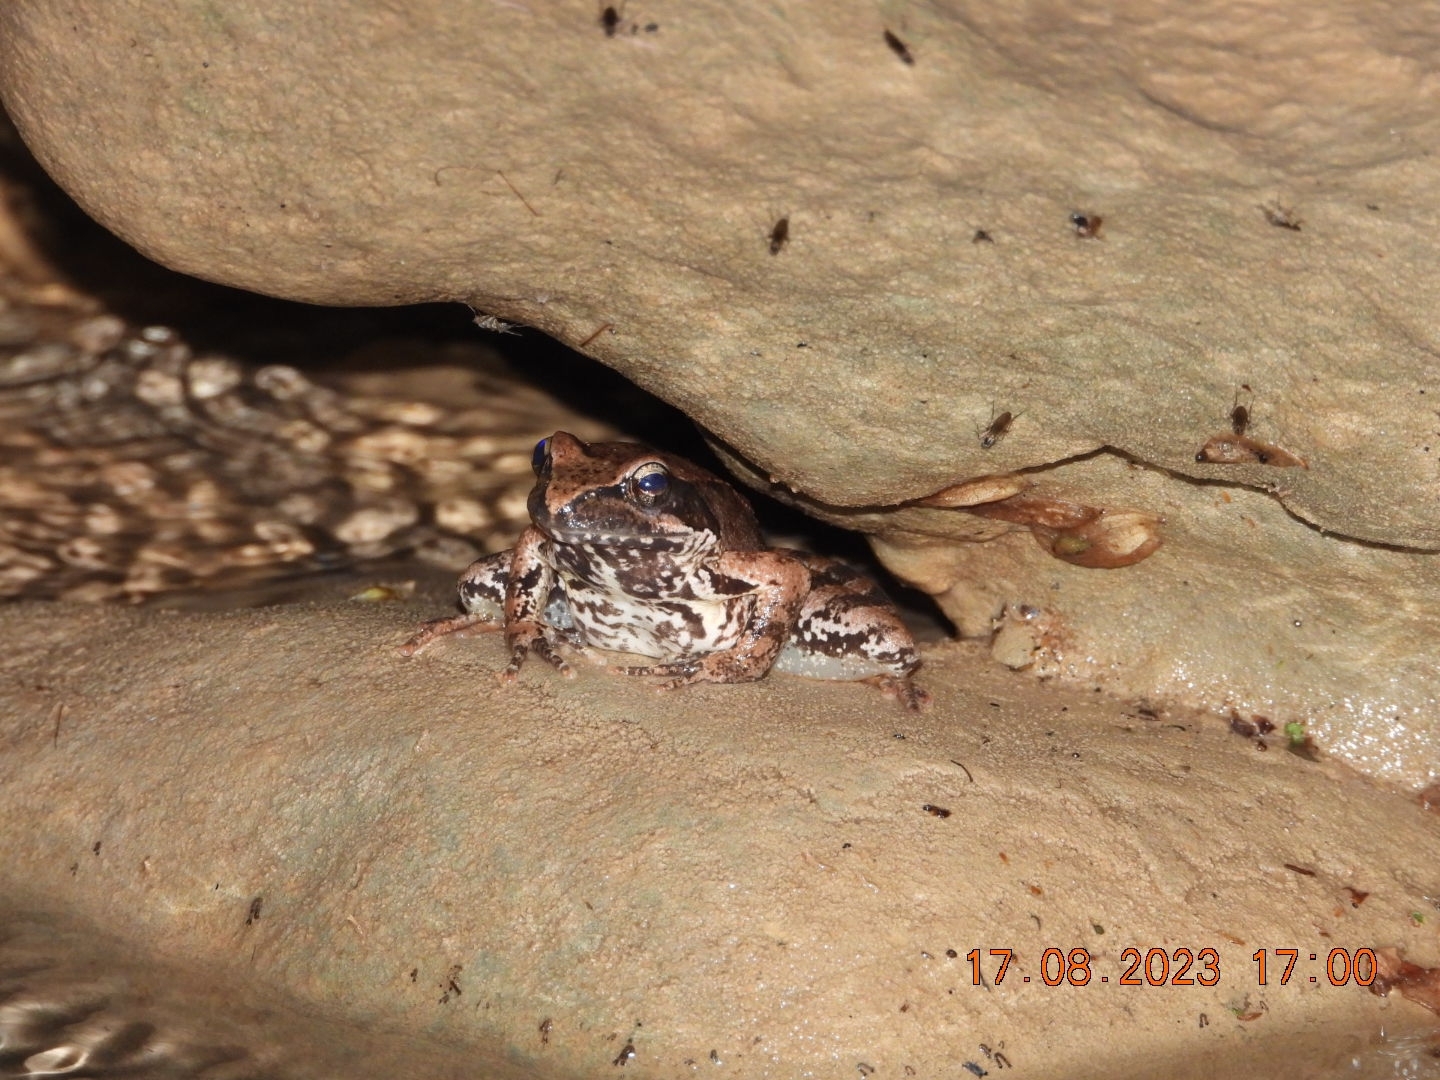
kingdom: Animalia
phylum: Chordata
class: Amphibia
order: Anura
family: Ranidae
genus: Rana
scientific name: Rana italica
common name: Italian stream frog
